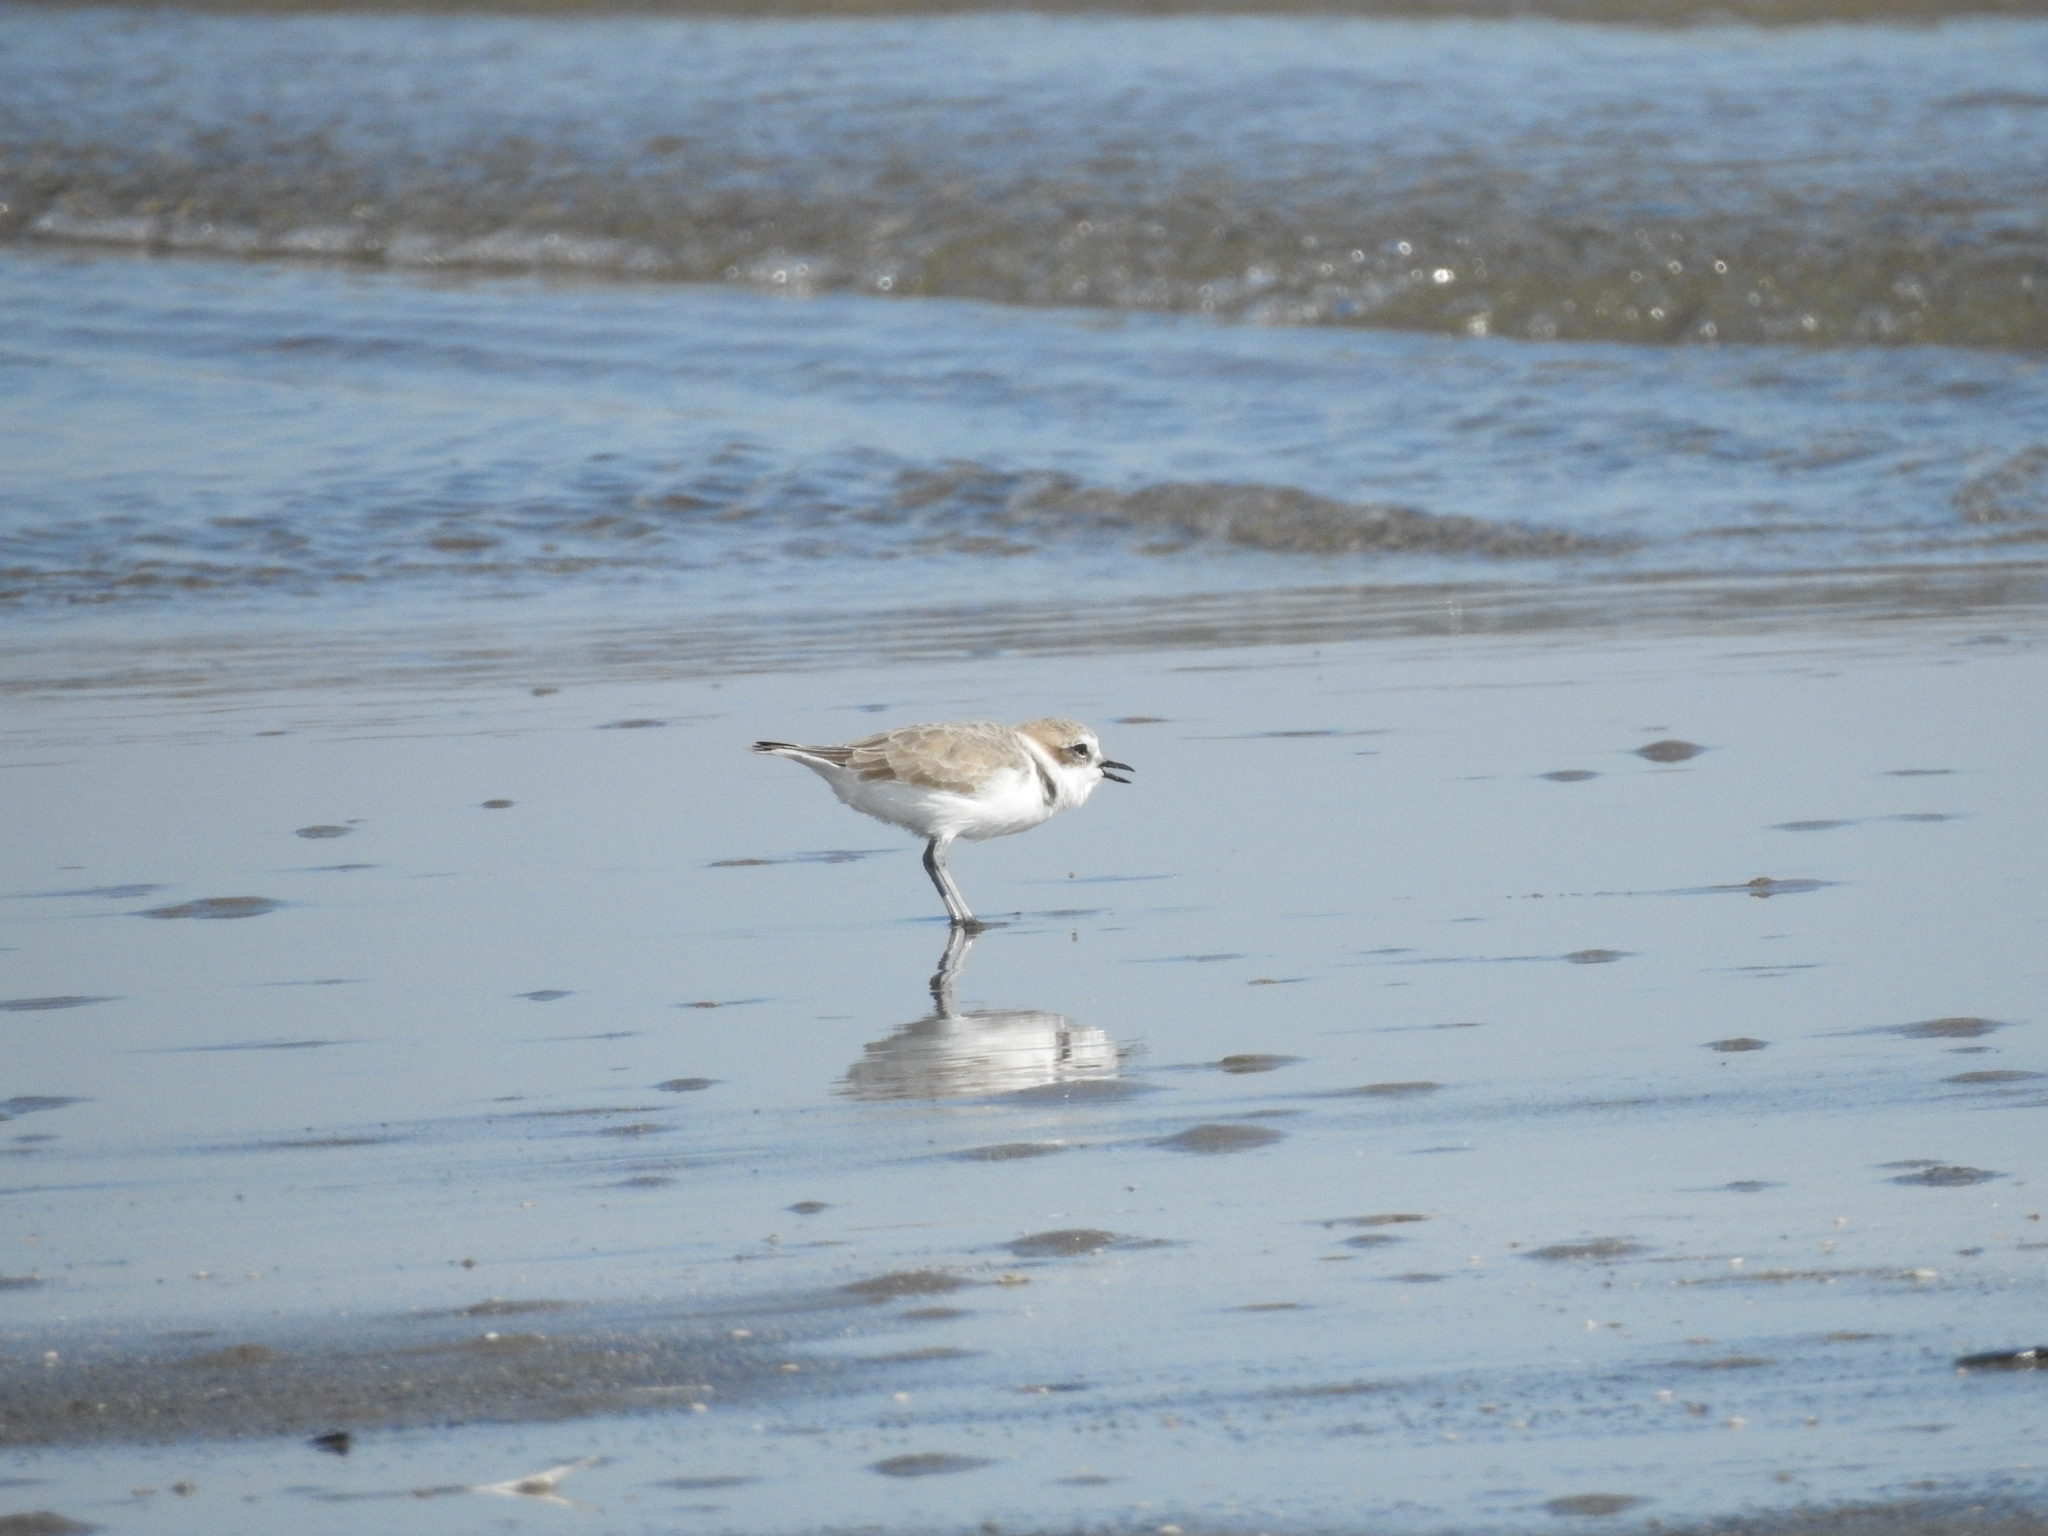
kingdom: Animalia
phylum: Chordata
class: Aves
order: Charadriiformes
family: Charadriidae
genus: Anarhynchus
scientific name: Anarhynchus
